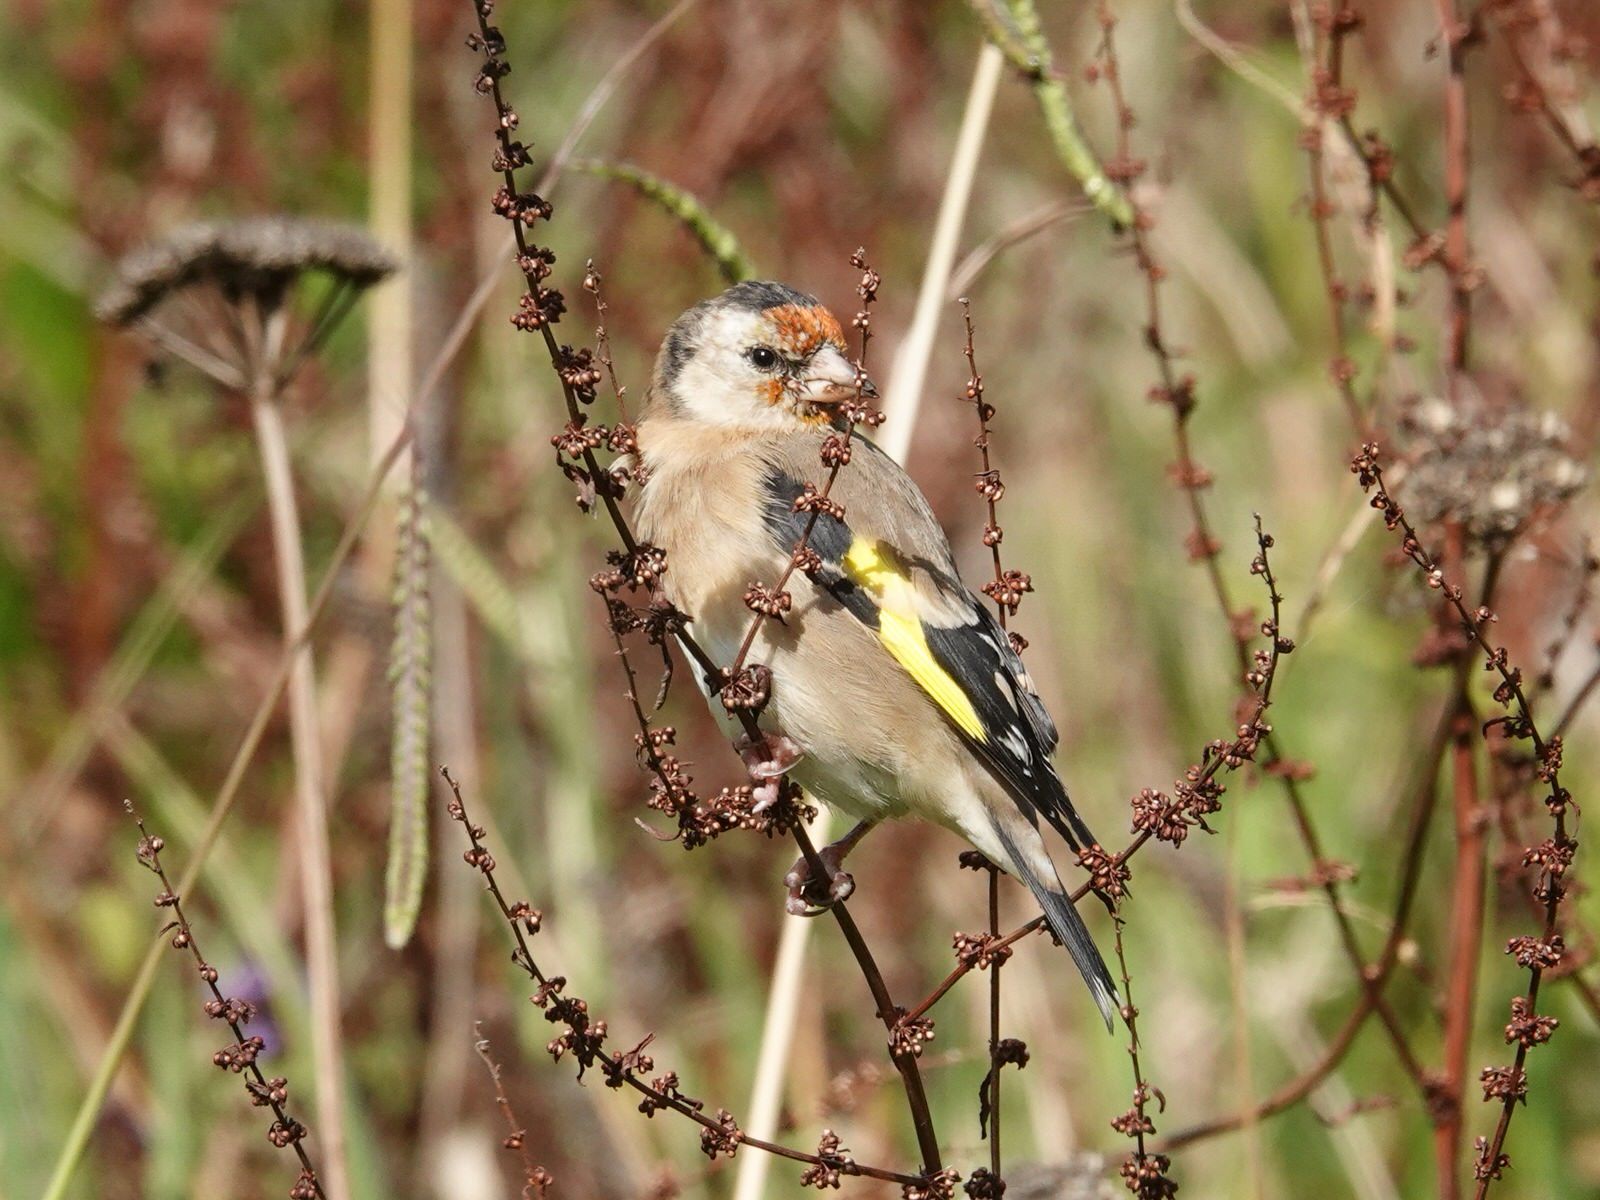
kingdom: Animalia
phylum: Chordata
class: Aves
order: Passeriformes
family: Fringillidae
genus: Carduelis
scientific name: Carduelis carduelis
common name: European goldfinch
